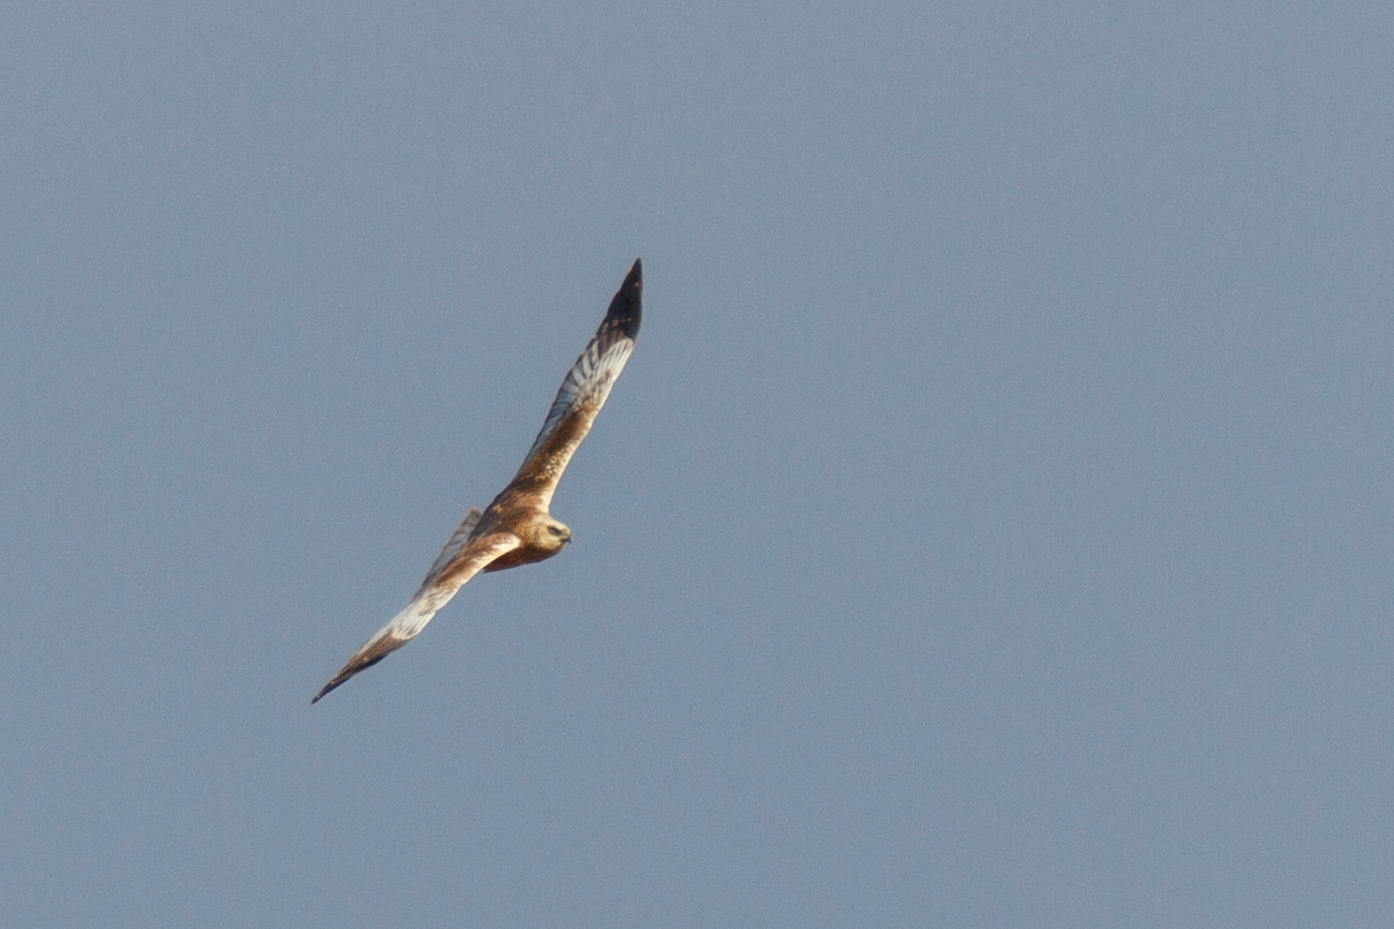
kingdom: Animalia
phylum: Chordata
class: Aves
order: Accipitriformes
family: Accipitridae
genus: Circus
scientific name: Circus aeruginosus
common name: Western marsh harrier
